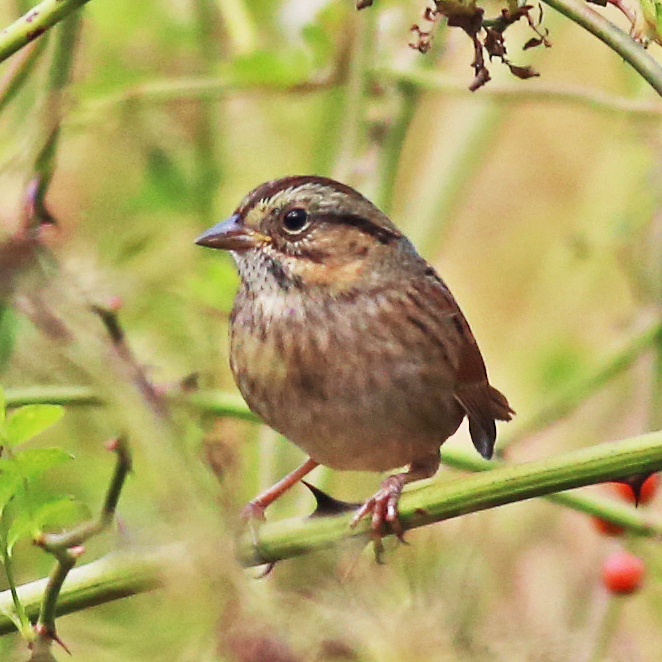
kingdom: Animalia
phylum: Chordata
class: Aves
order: Passeriformes
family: Passerellidae
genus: Melospiza
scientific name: Melospiza georgiana
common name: Swamp sparrow
